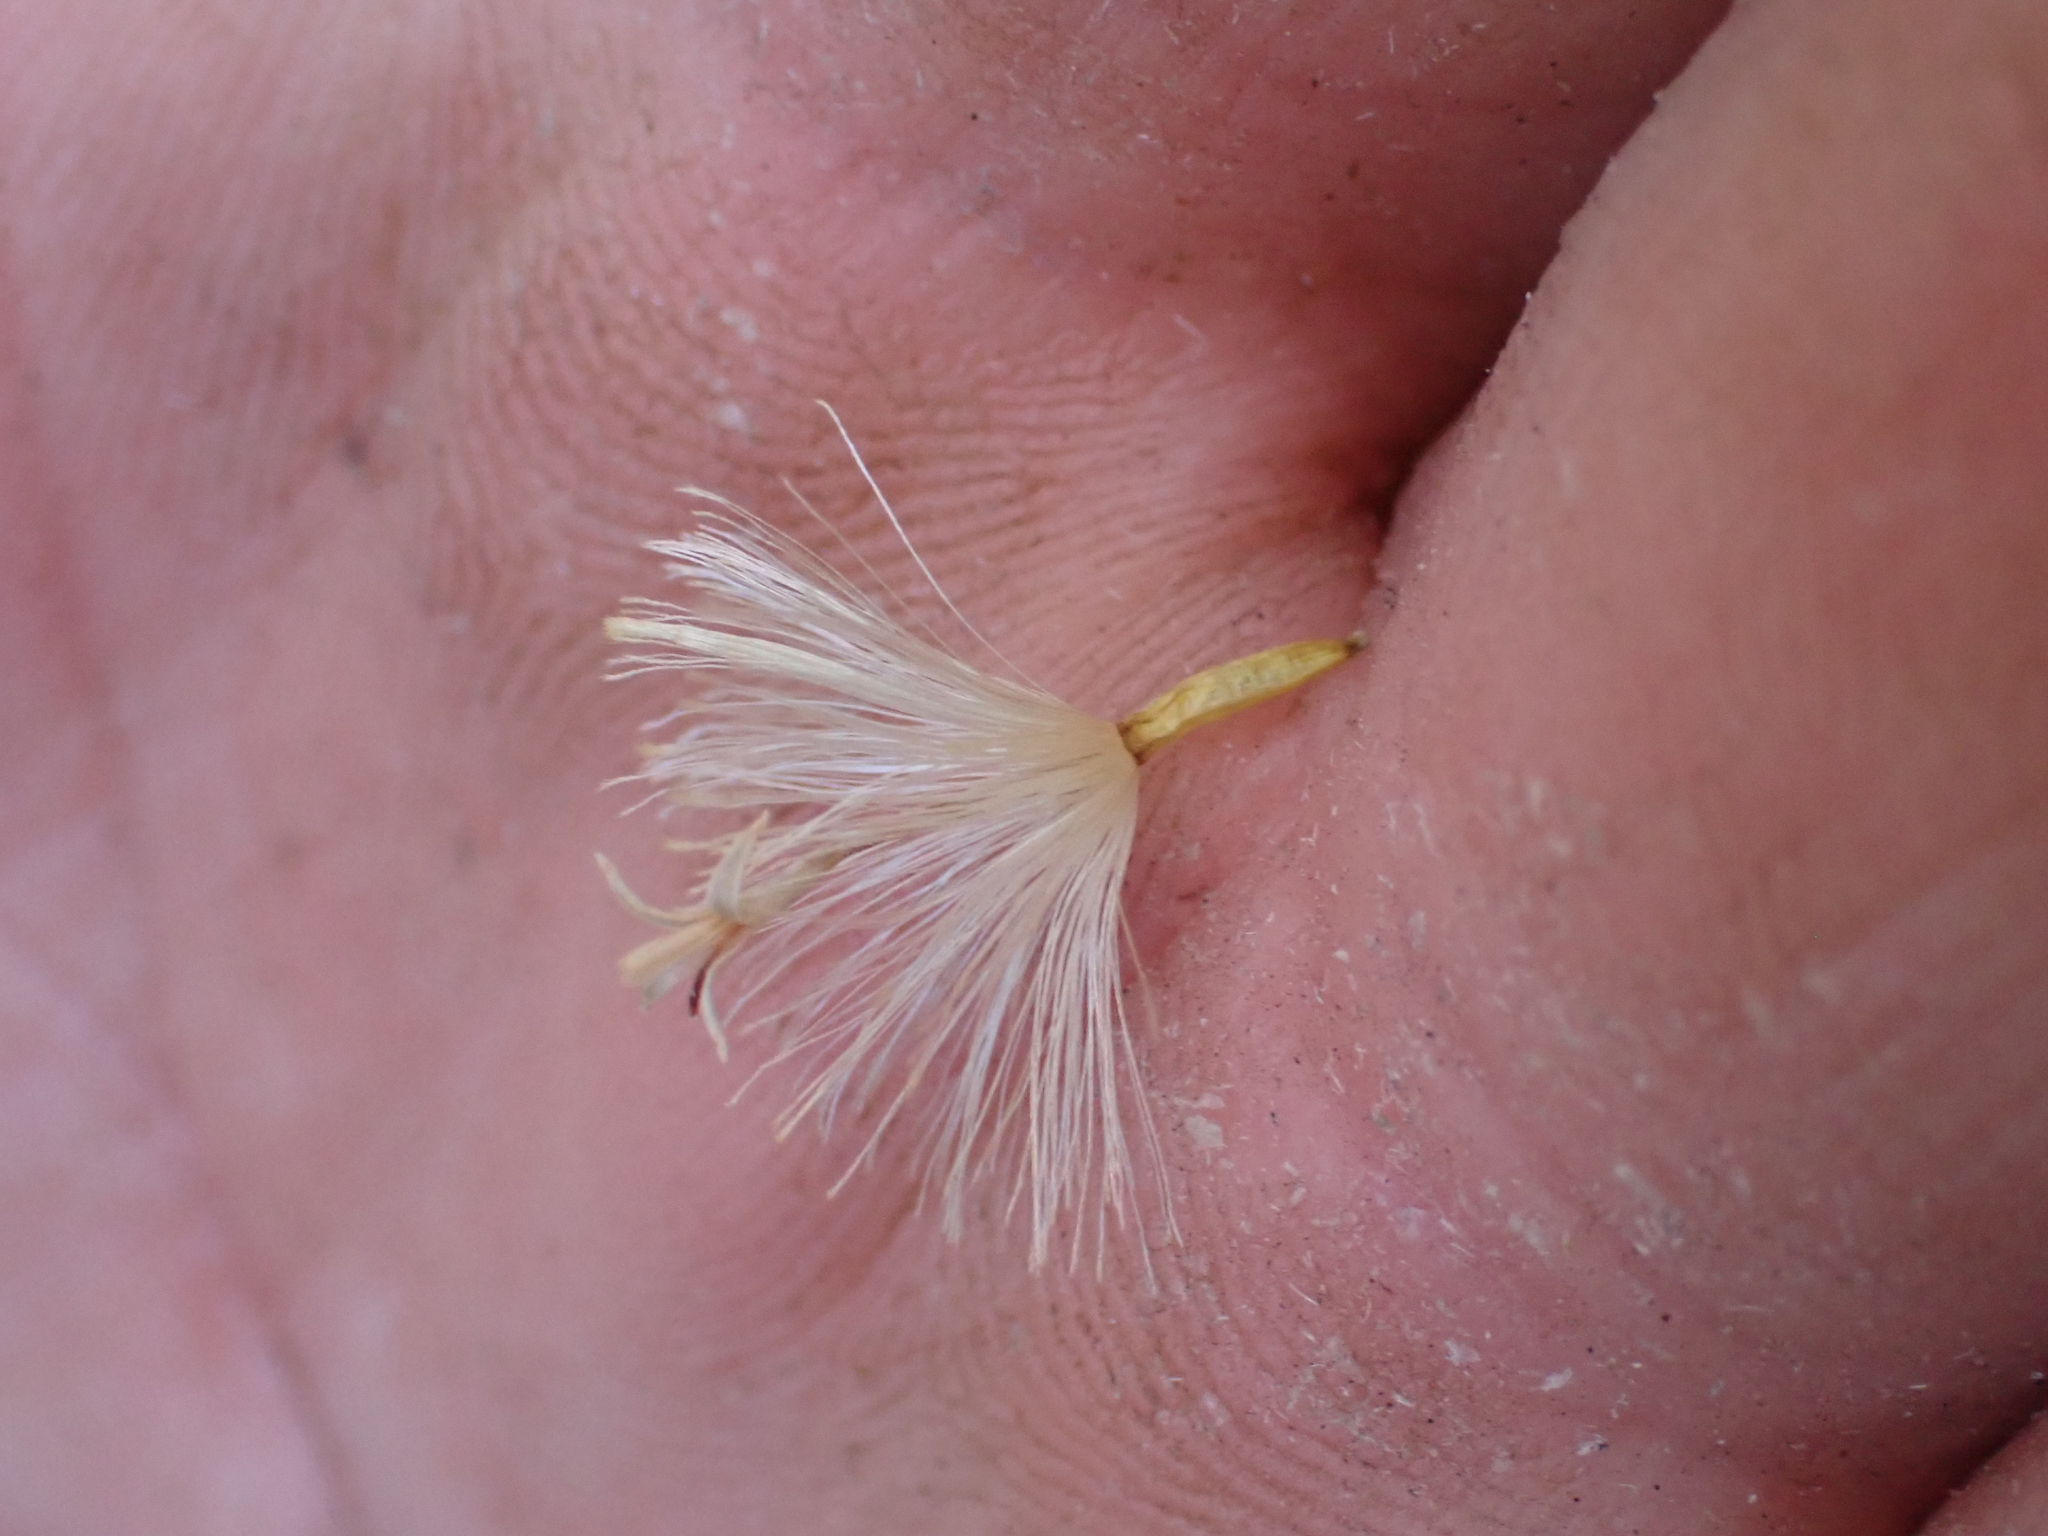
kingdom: Plantae
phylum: Tracheophyta
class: Magnoliopsida
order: Asterales
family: Asteraceae
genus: Tetradymia
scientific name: Tetradymia argyraea
